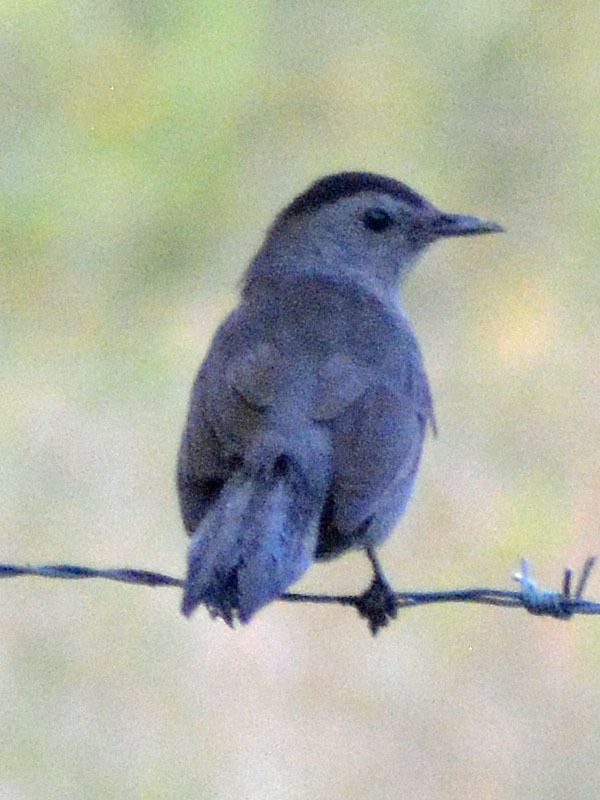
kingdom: Animalia
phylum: Chordata
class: Aves
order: Passeriformes
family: Mimidae
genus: Dumetella
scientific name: Dumetella carolinensis
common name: Gray catbird
